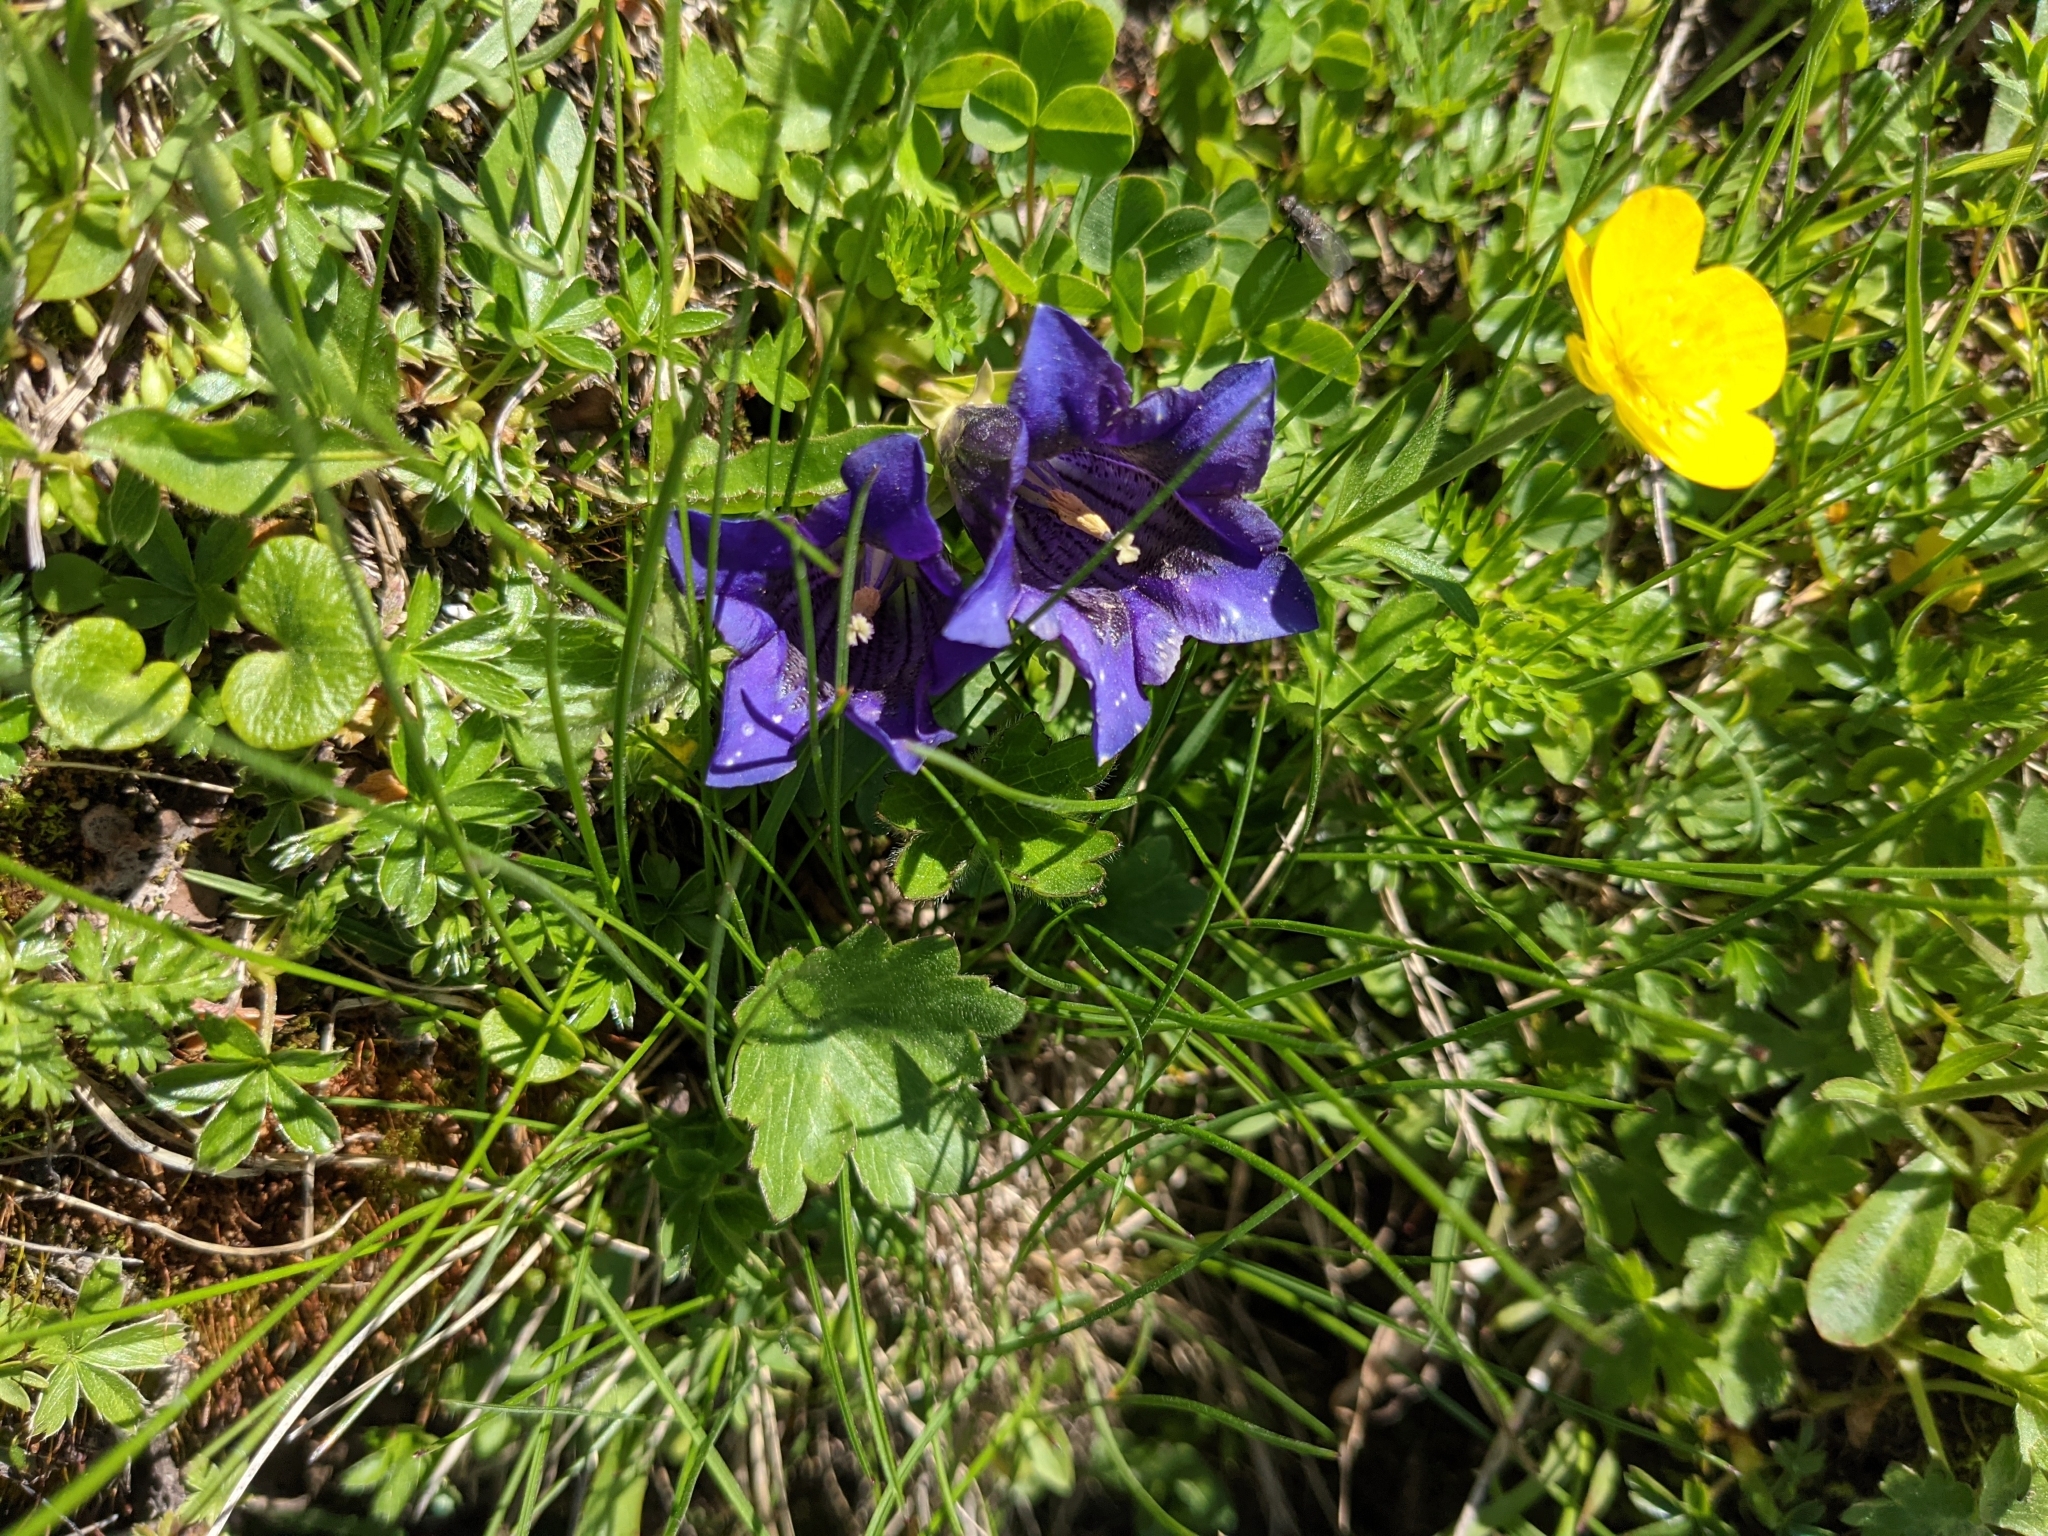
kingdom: Plantae
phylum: Tracheophyta
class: Magnoliopsida
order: Gentianales
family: Gentianaceae
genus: Gentiana
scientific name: Gentiana acaulis
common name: Trumpet gentian
